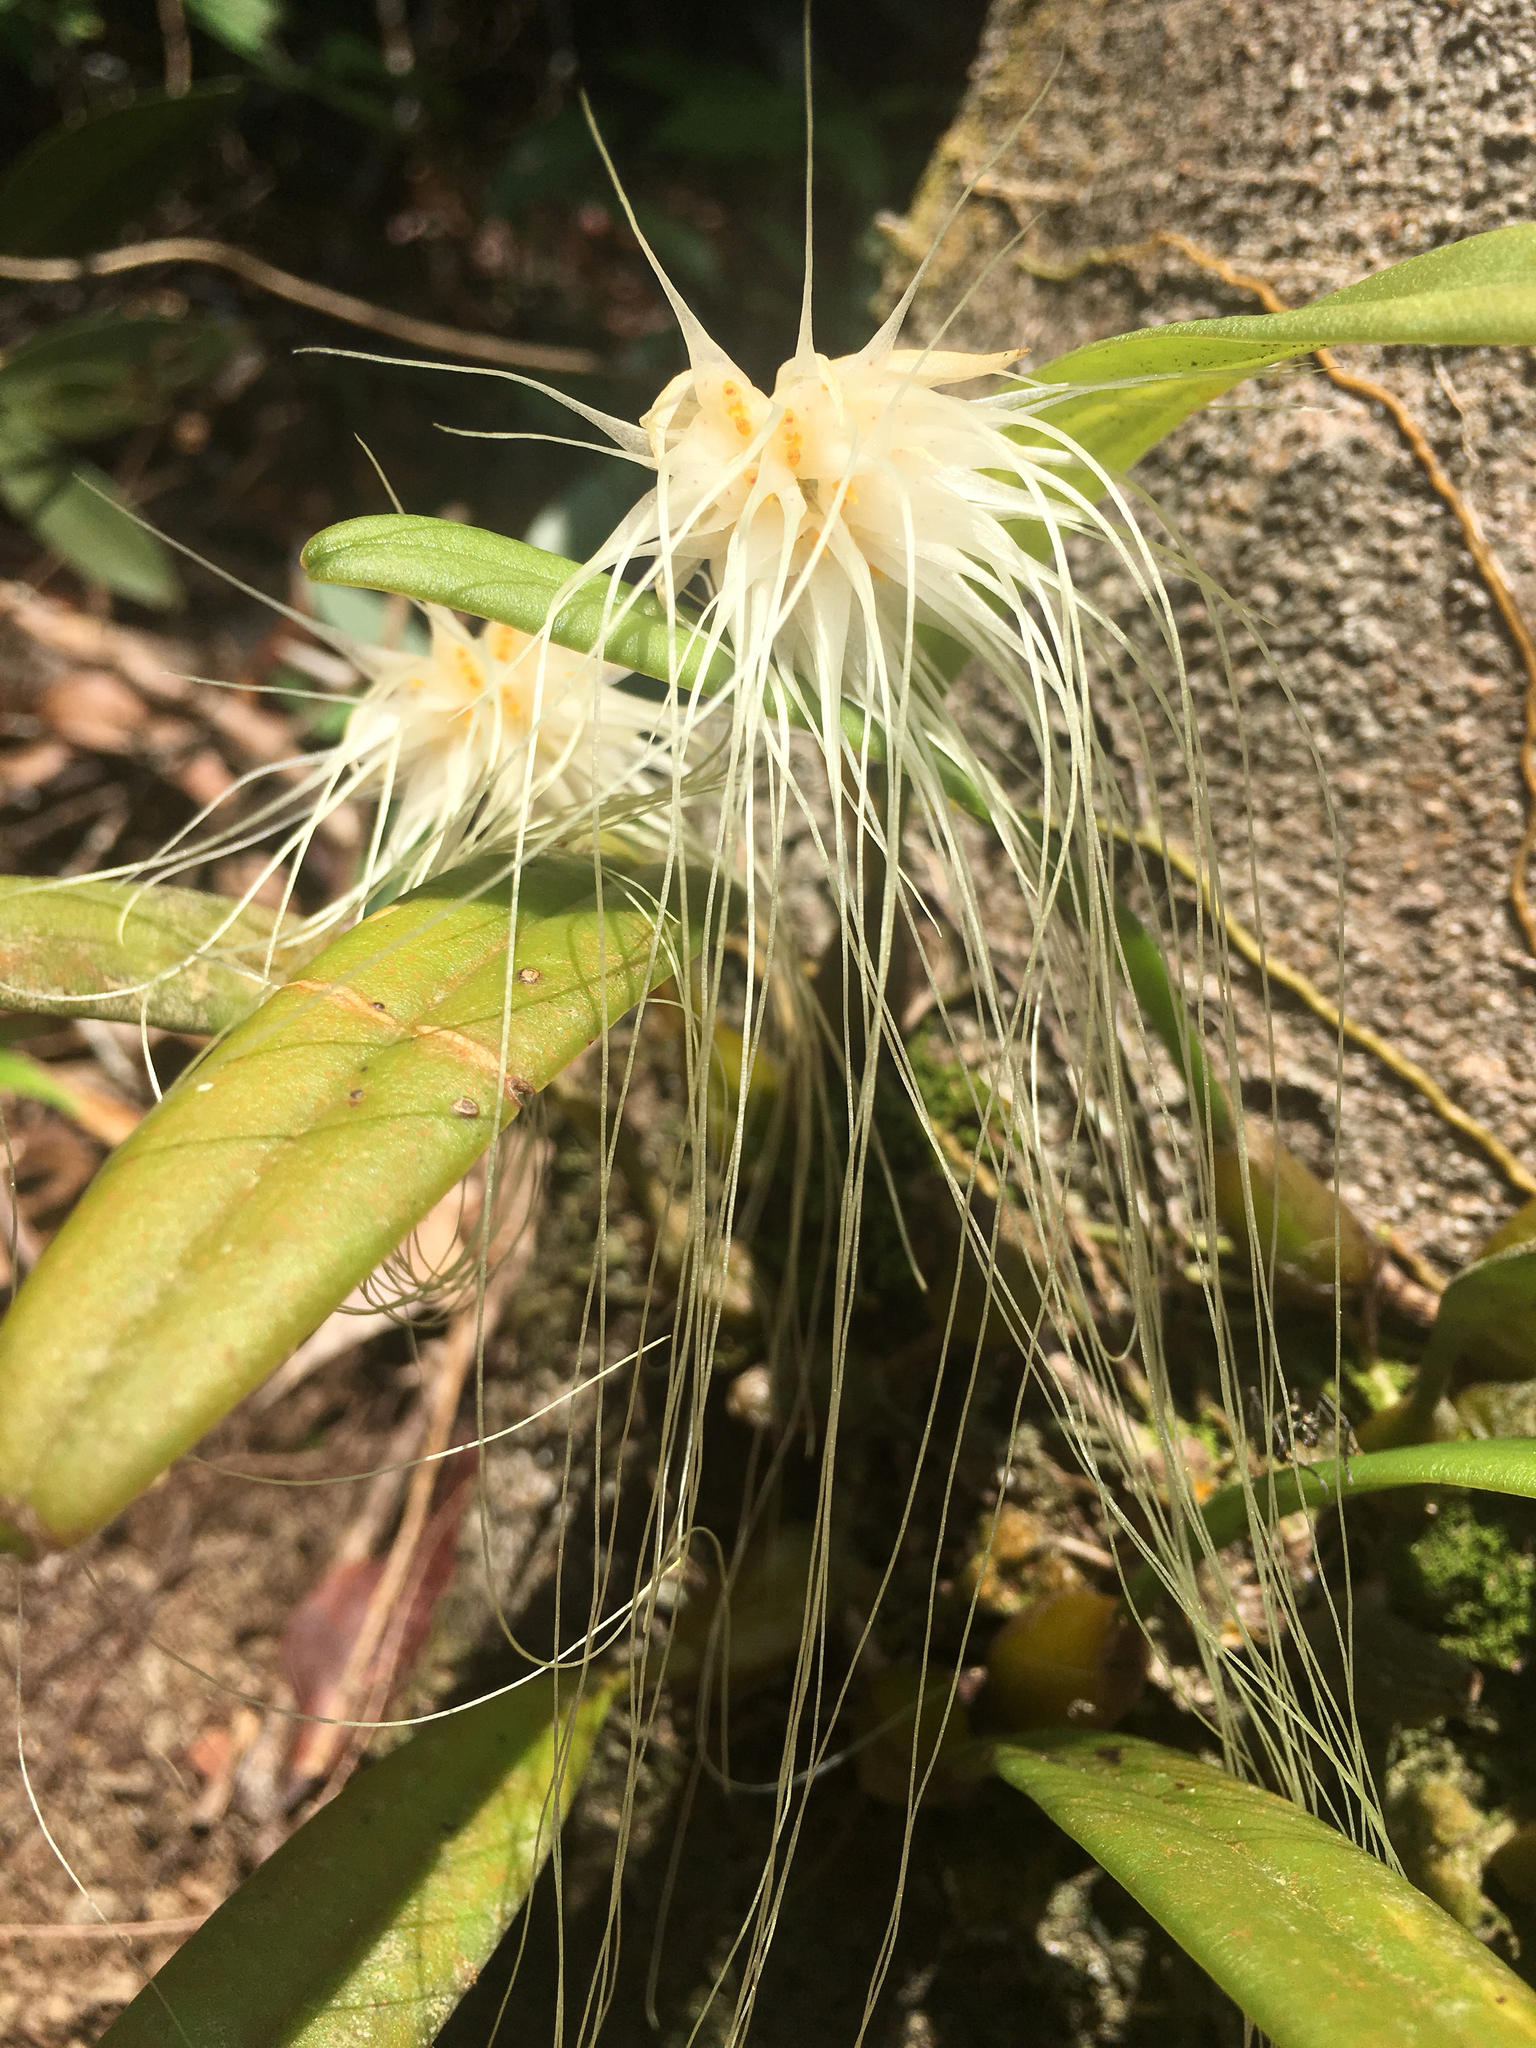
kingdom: Plantae
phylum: Tracheophyta
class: Liliopsida
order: Asparagales
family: Orchidaceae
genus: Bulbophyllum
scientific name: Bulbophyllum medusae
